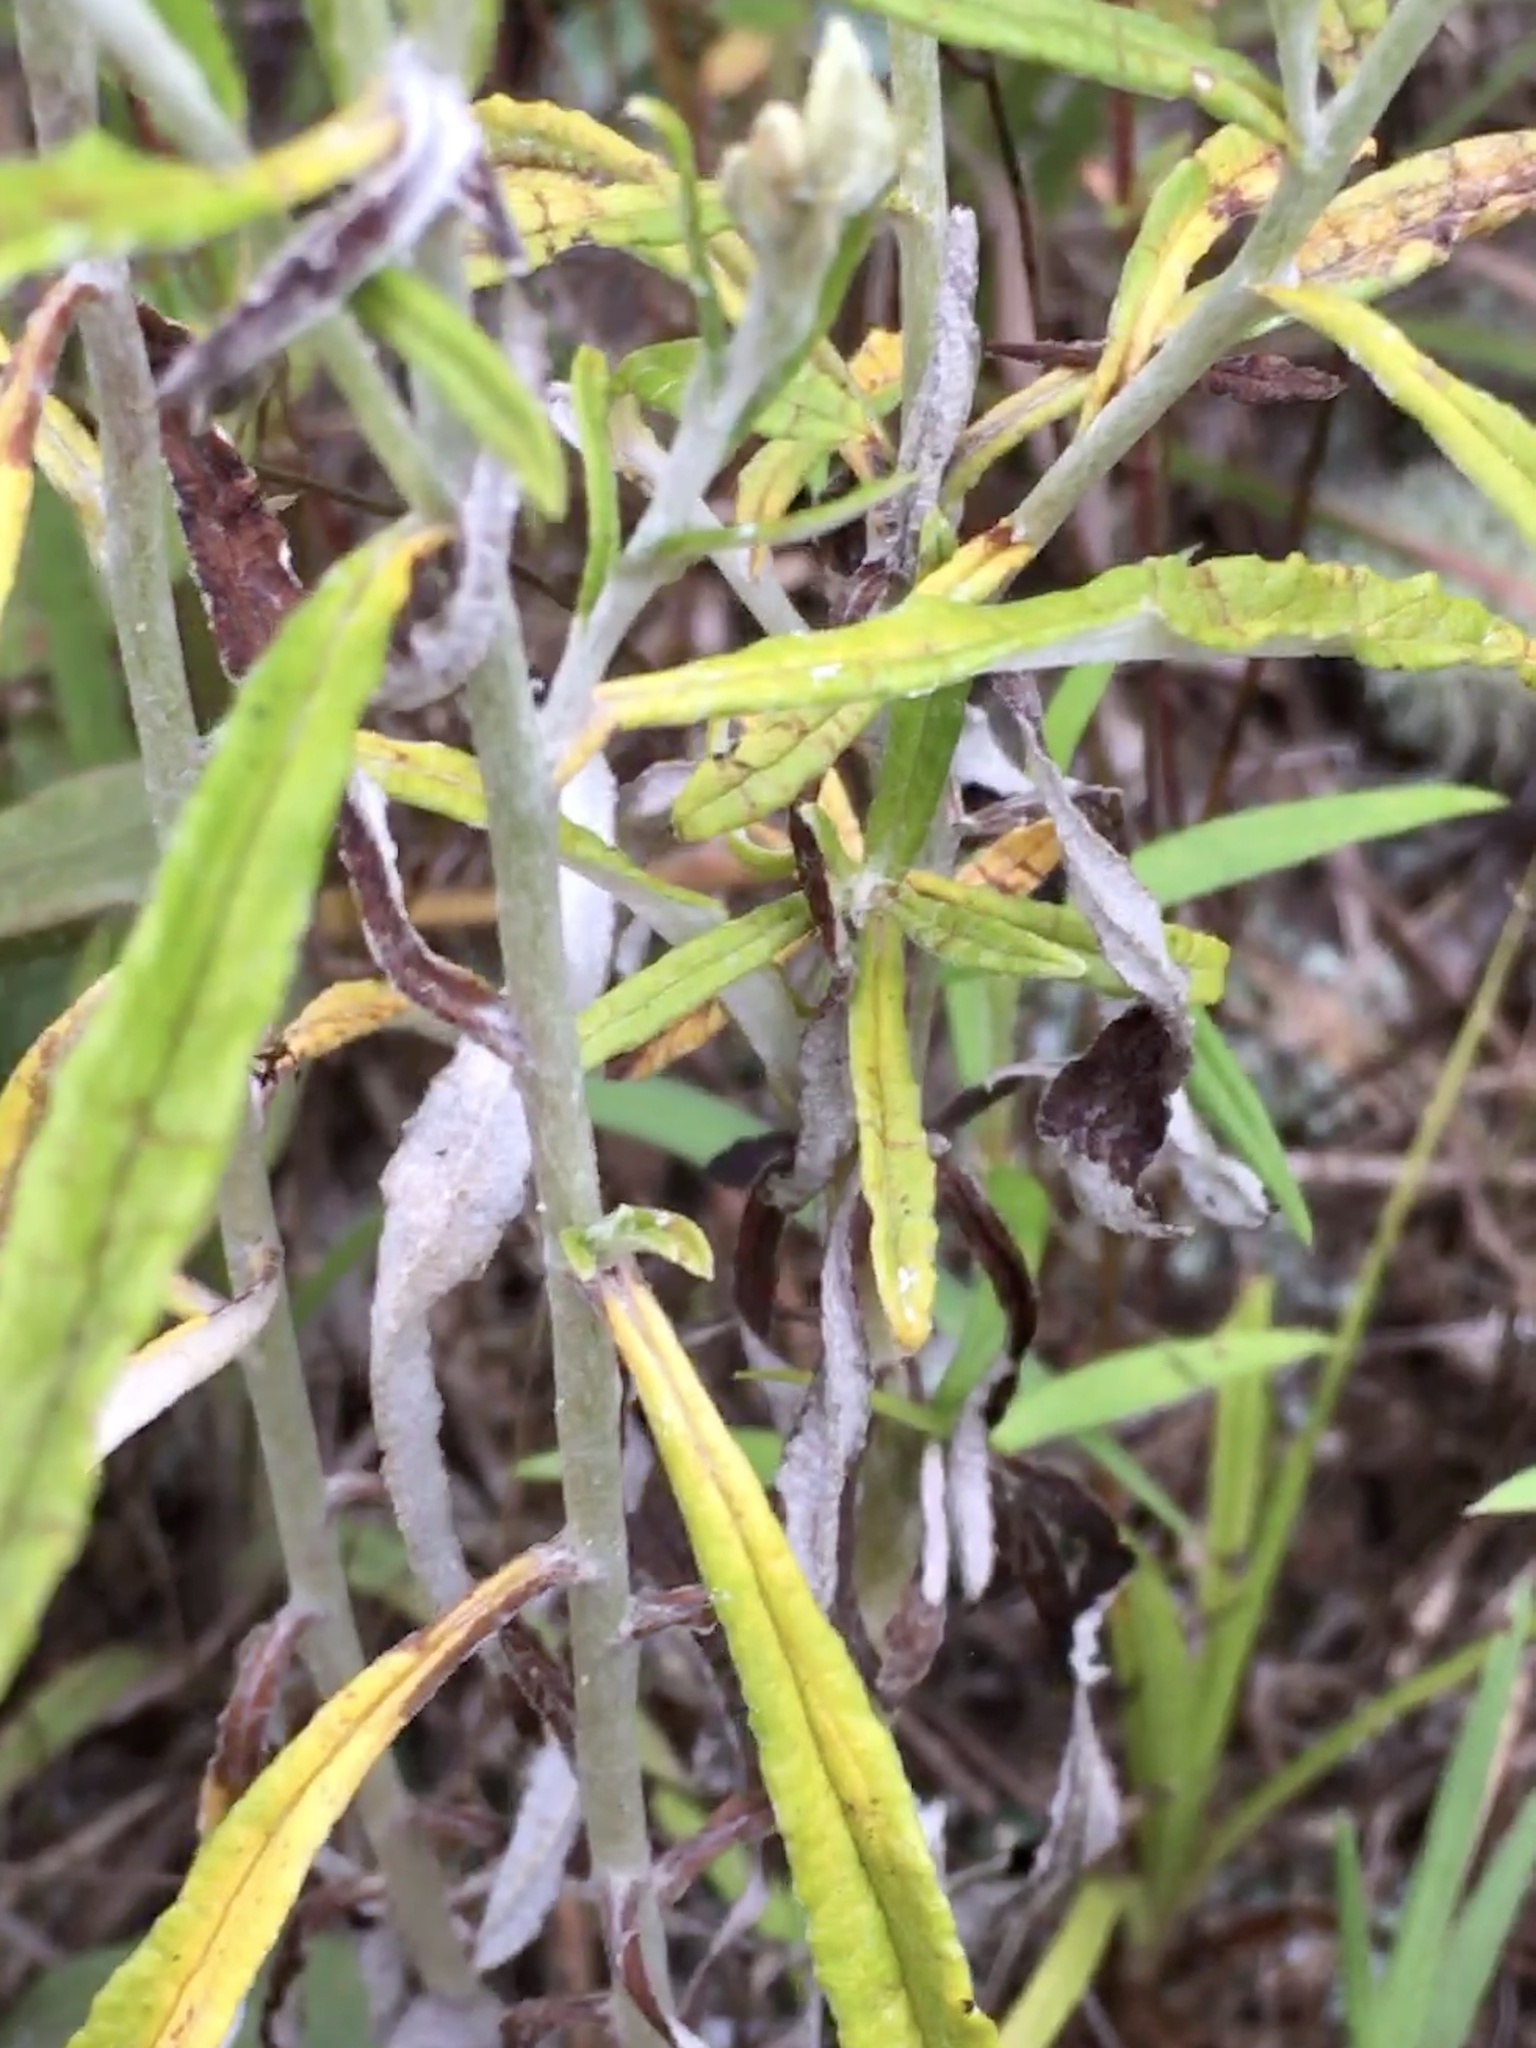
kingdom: Plantae
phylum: Tracheophyta
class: Magnoliopsida
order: Asterales
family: Asteraceae
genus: Pseudognaphalium
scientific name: Pseudognaphalium obtusifolium
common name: Eastern rabbit-tobacco
